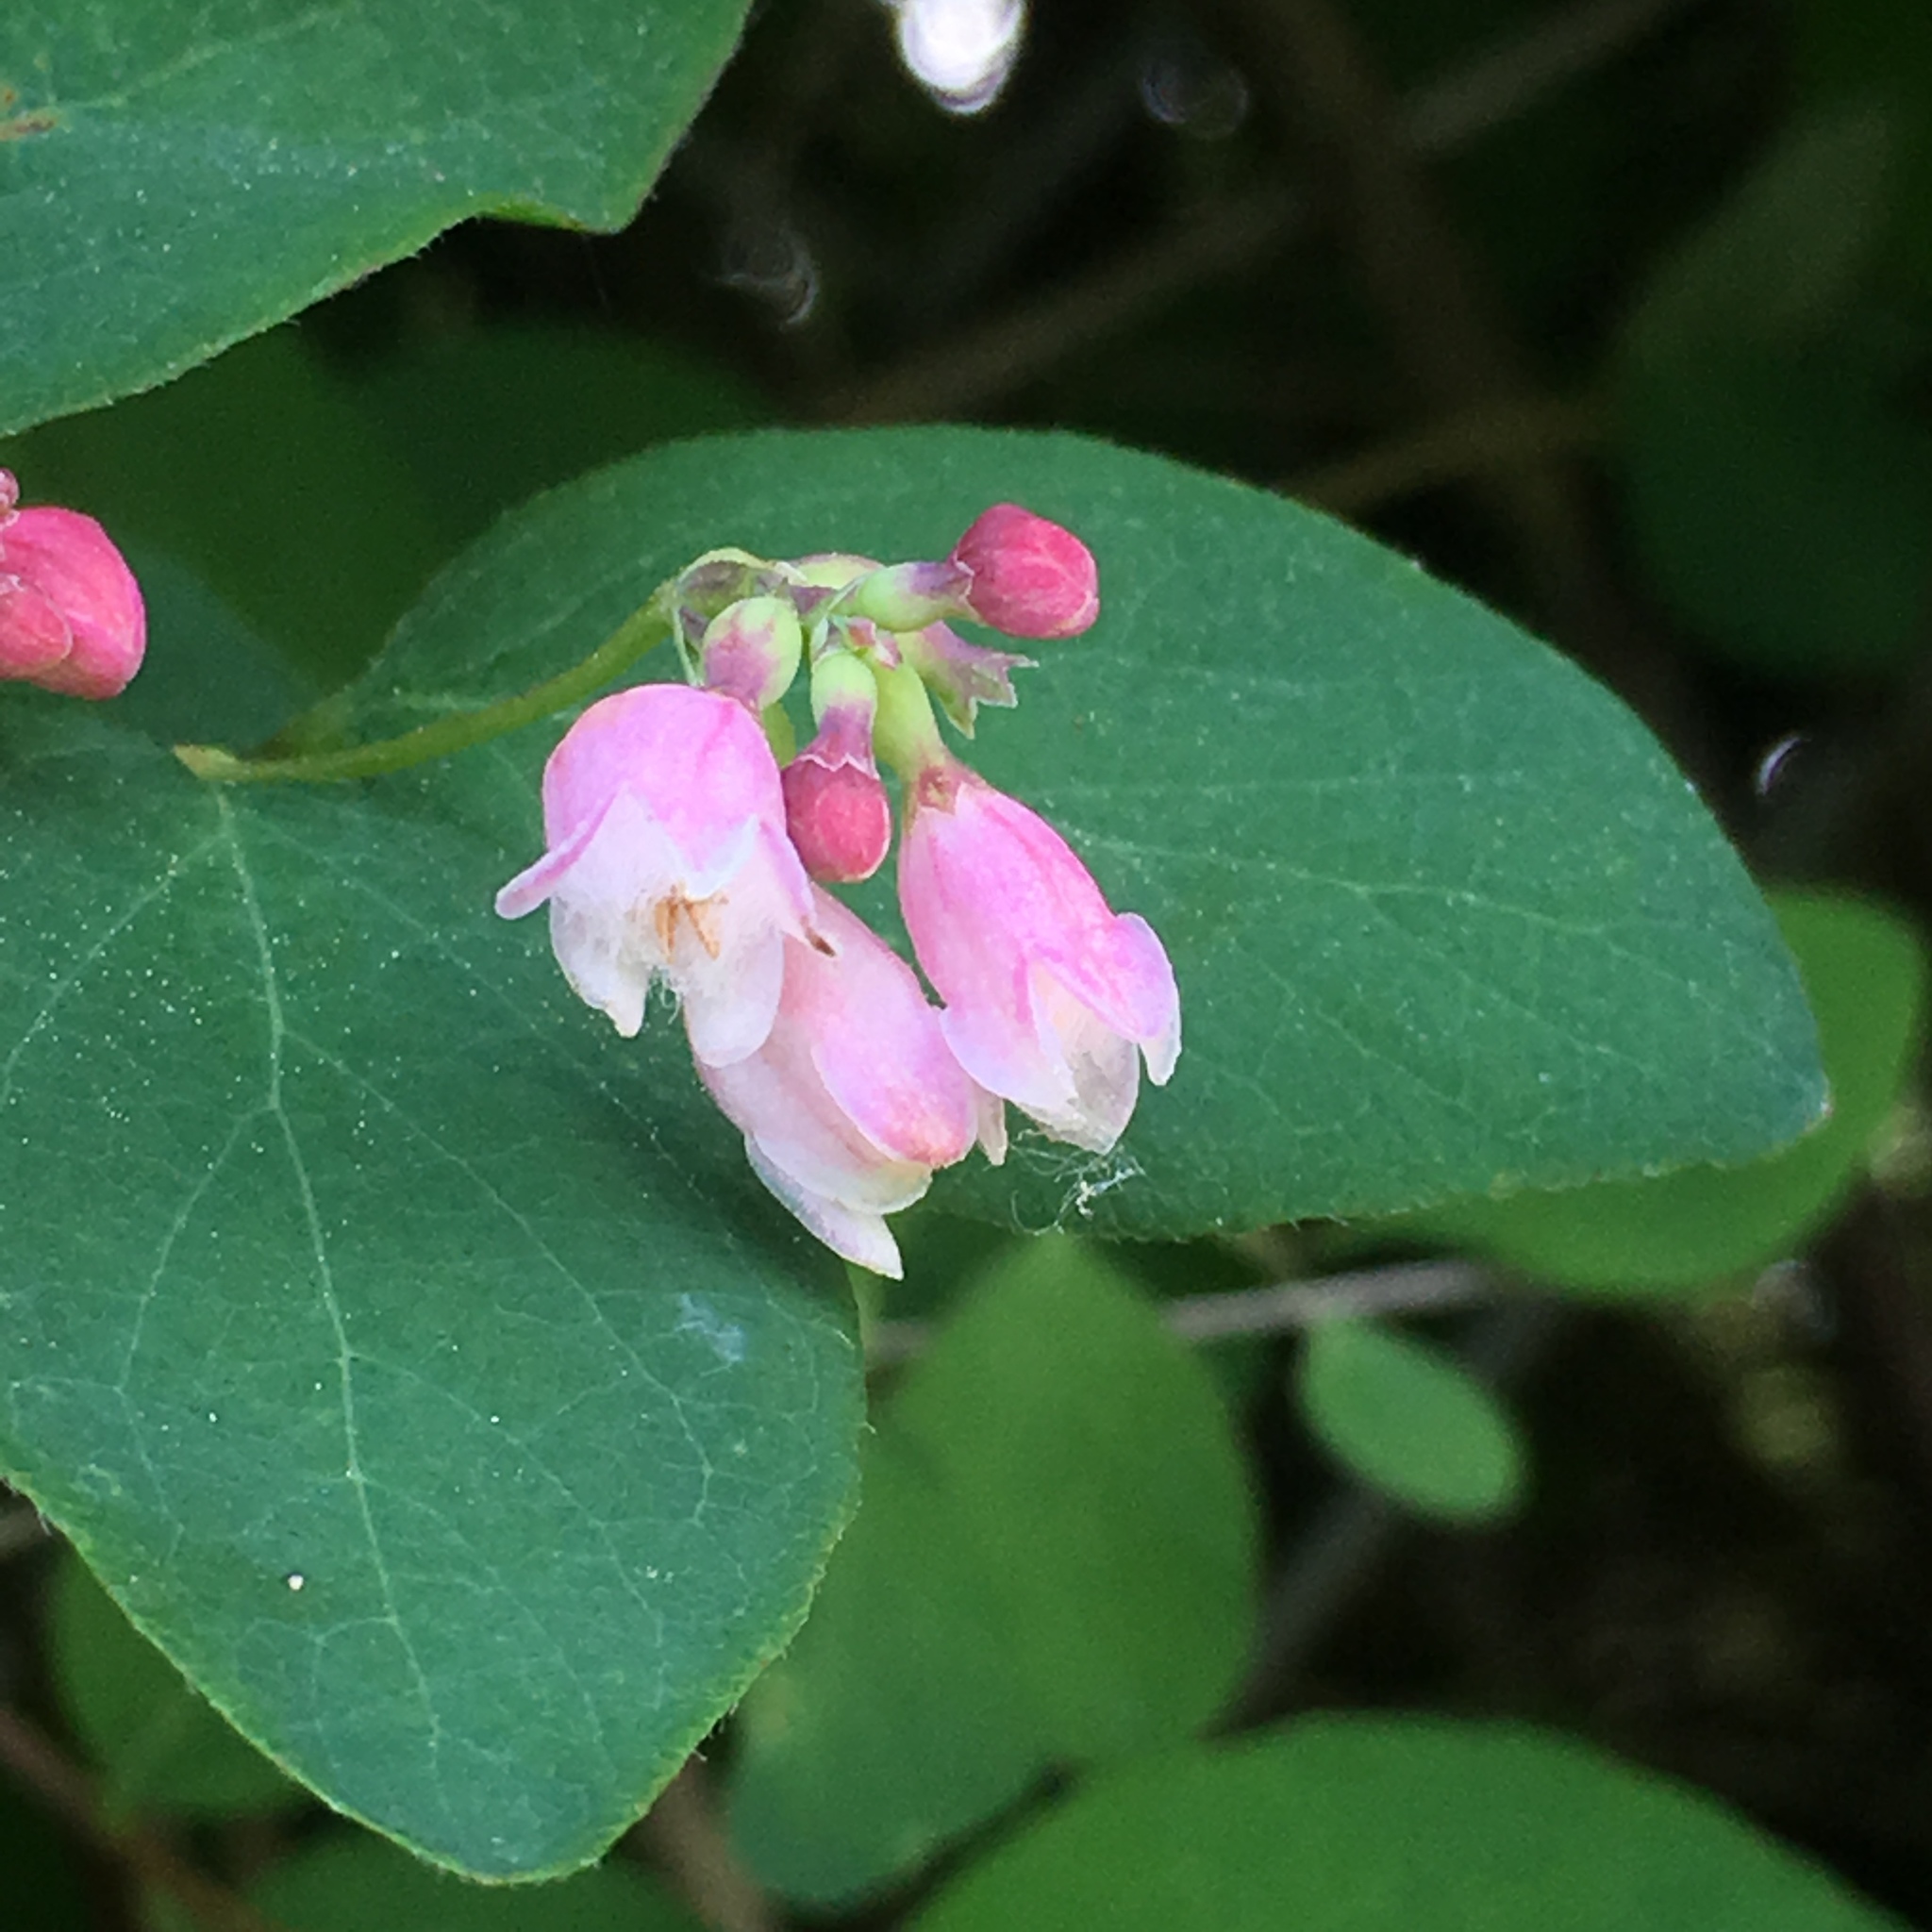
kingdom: Plantae
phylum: Tracheophyta
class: Magnoliopsida
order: Dipsacales
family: Caprifoliaceae
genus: Symphoricarpos
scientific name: Symphoricarpos albus
